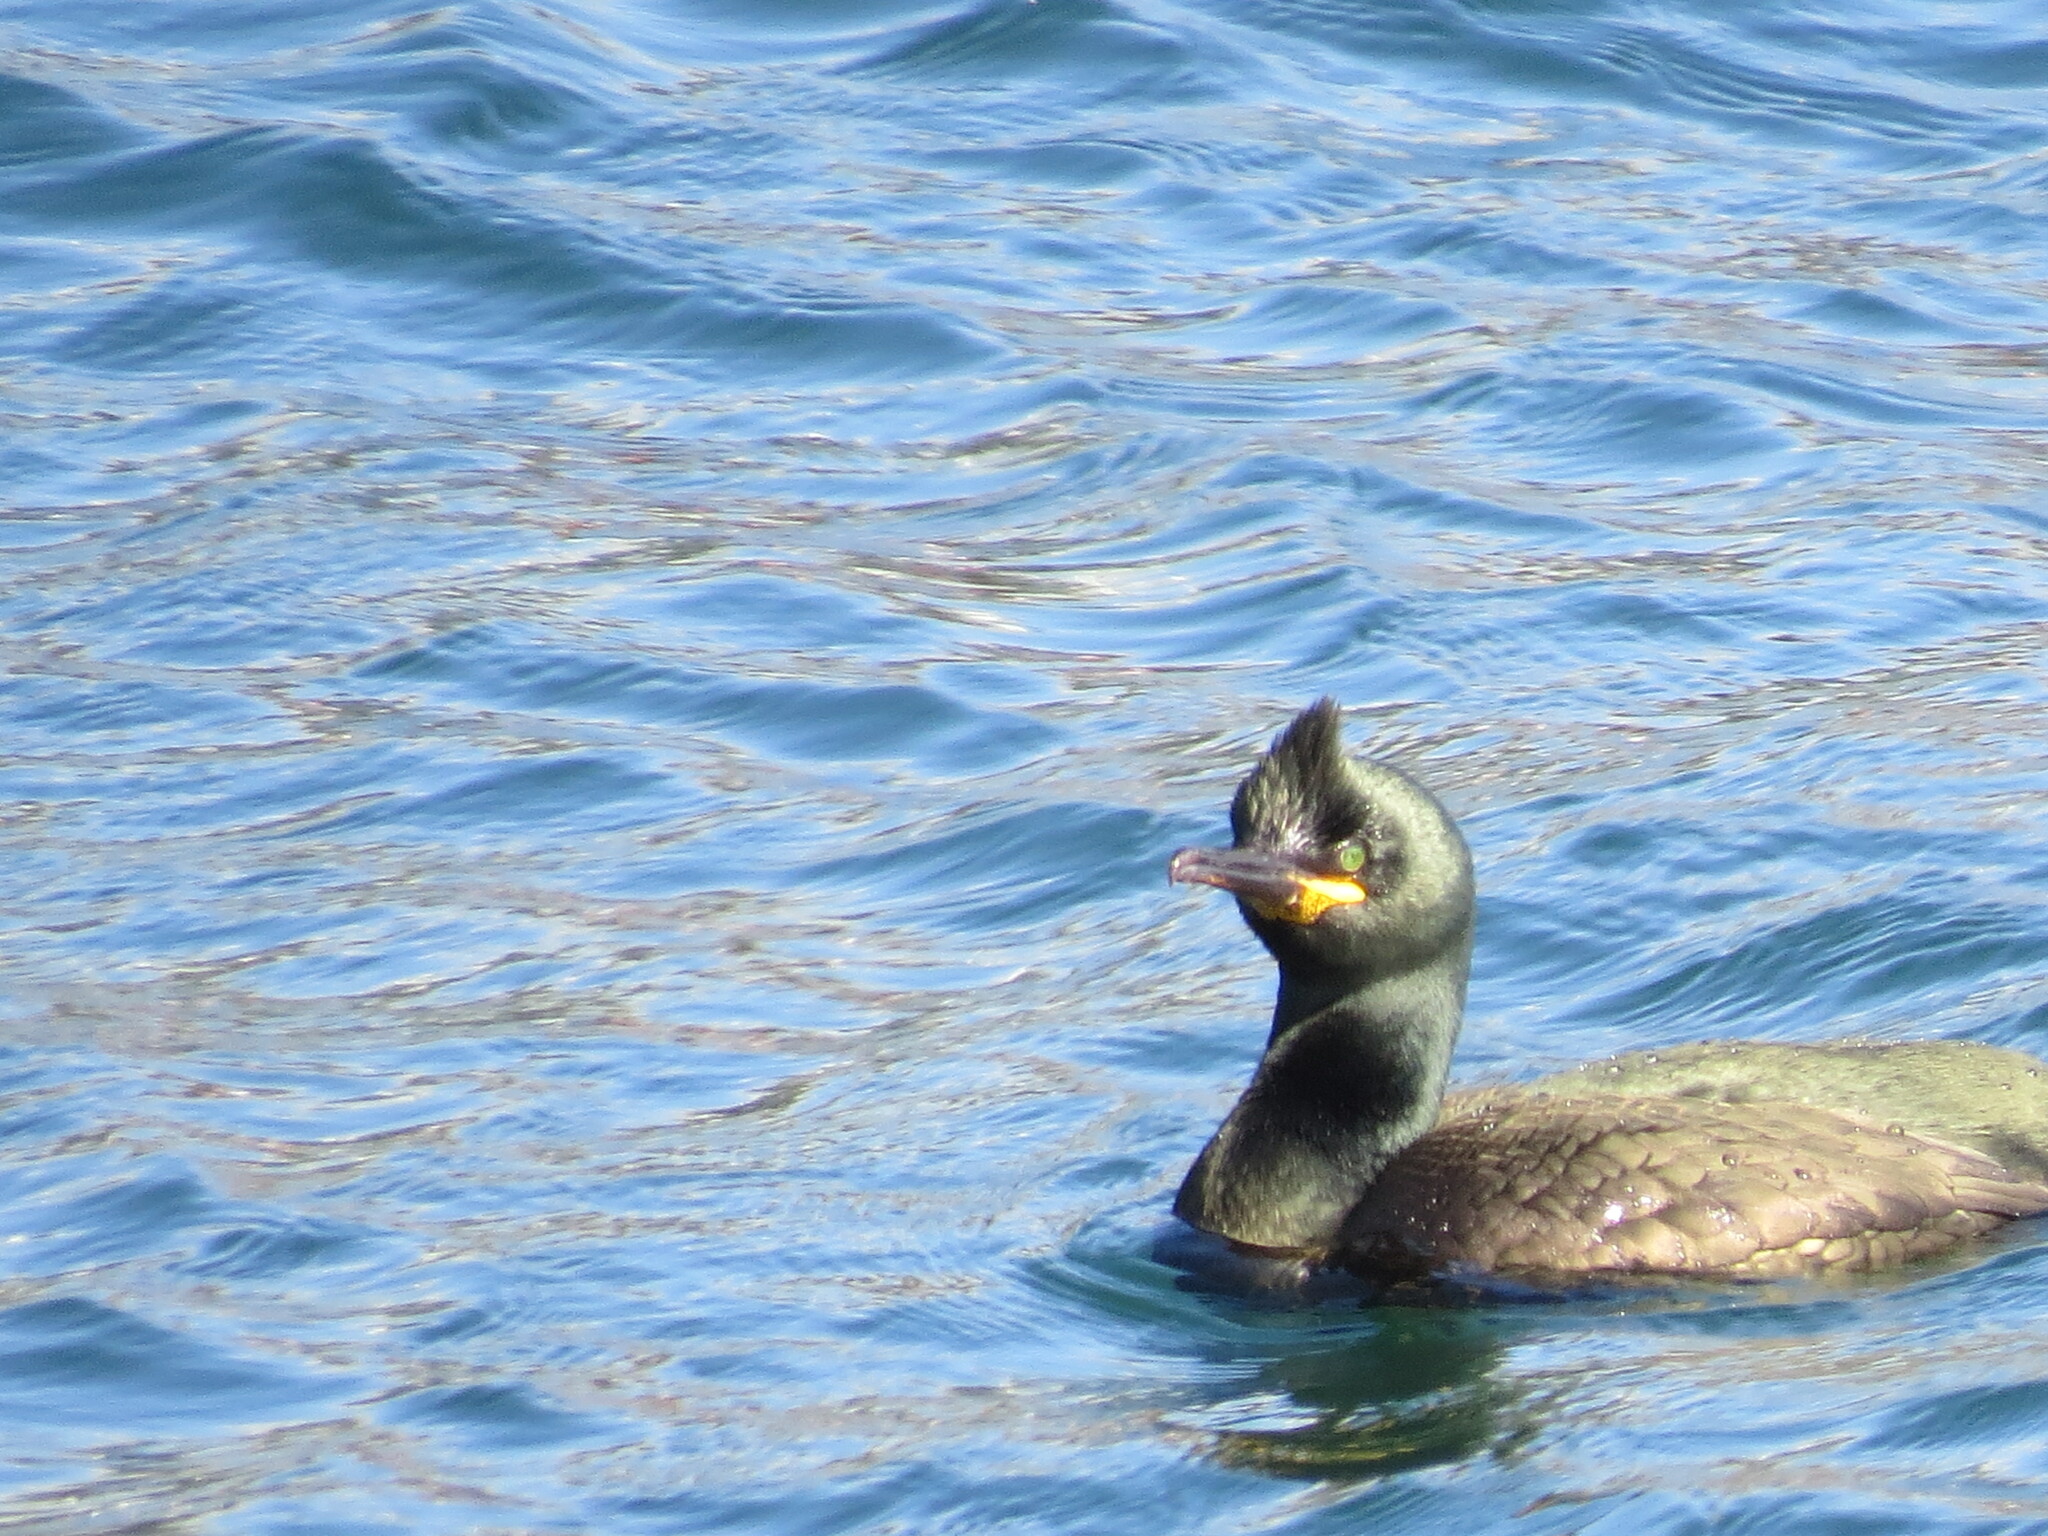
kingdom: Animalia
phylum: Chordata
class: Aves
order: Suliformes
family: Phalacrocoracidae
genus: Phalacrocorax
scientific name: Phalacrocorax aristotelis
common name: European shag
